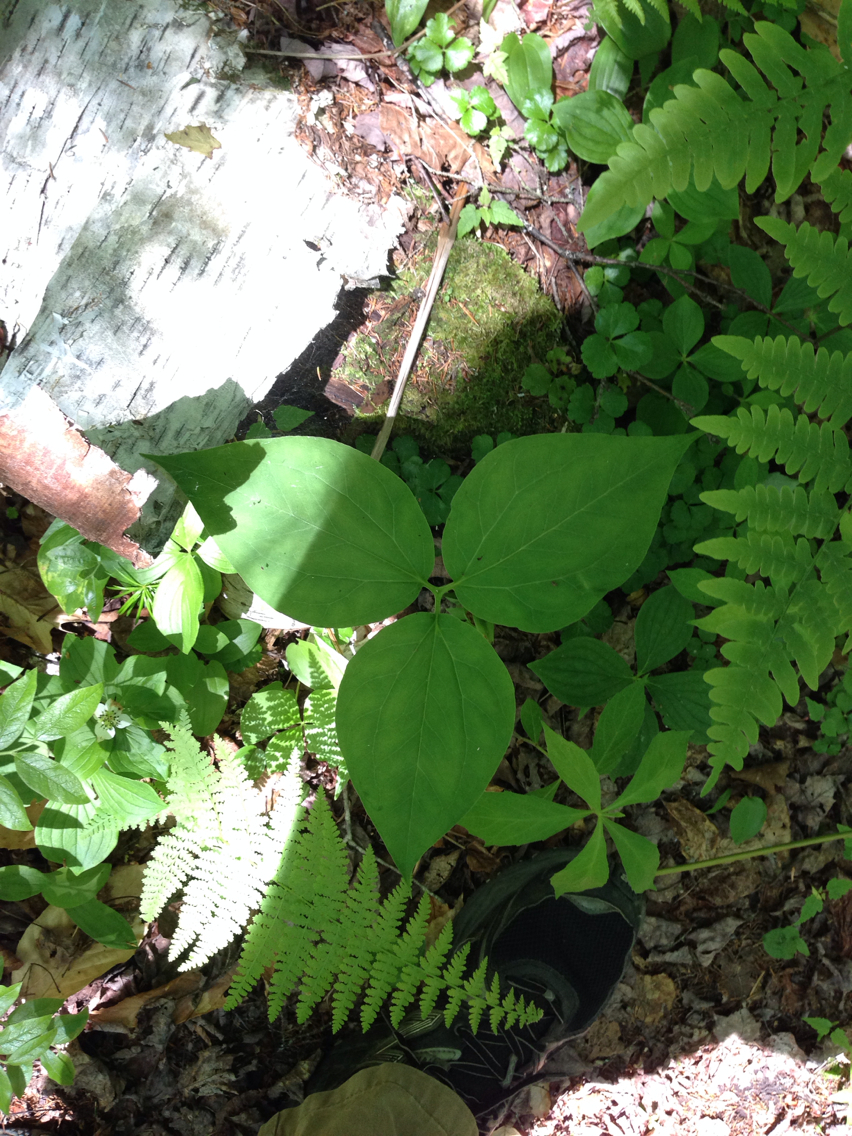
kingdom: Plantae
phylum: Tracheophyta
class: Liliopsida
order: Liliales
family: Melanthiaceae
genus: Trillium
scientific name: Trillium undulatum
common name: Paint trillium
